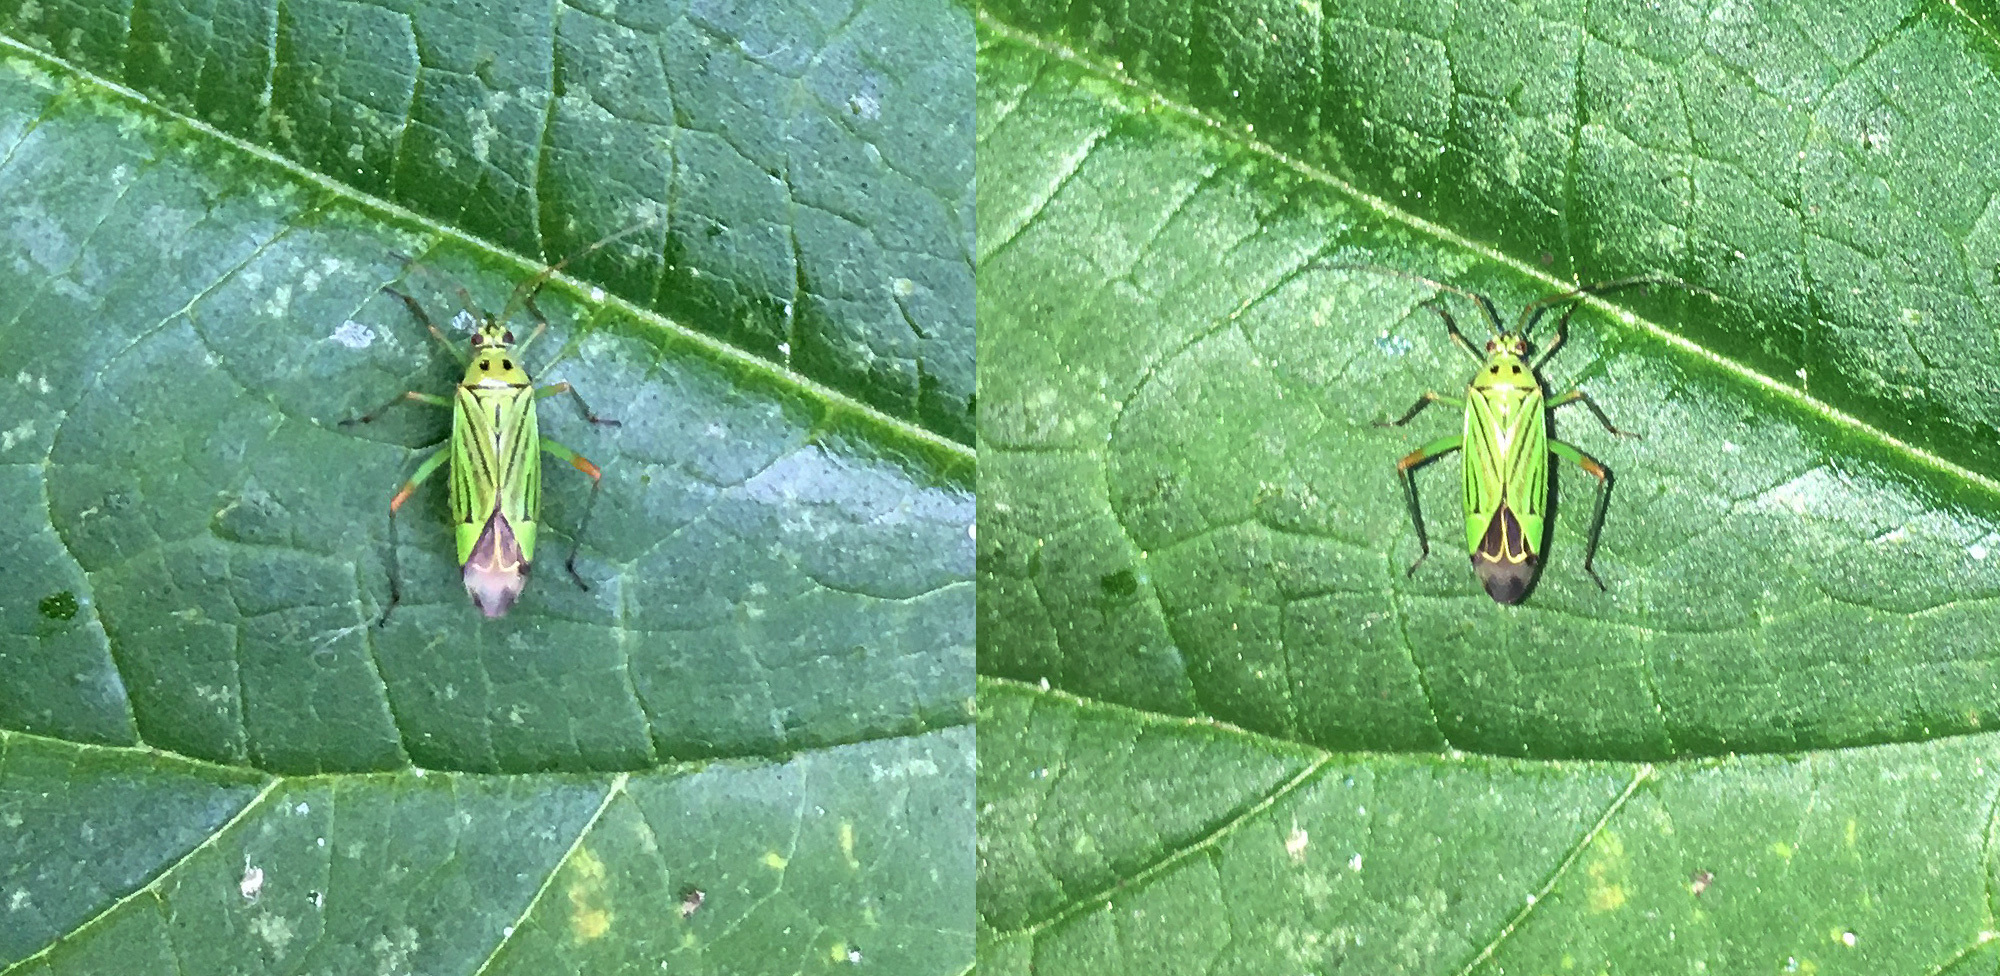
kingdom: Animalia
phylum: Arthropoda
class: Insecta
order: Hemiptera
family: Miridae
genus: Mermitelocerus
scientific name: Mermitelocerus schmidtii
